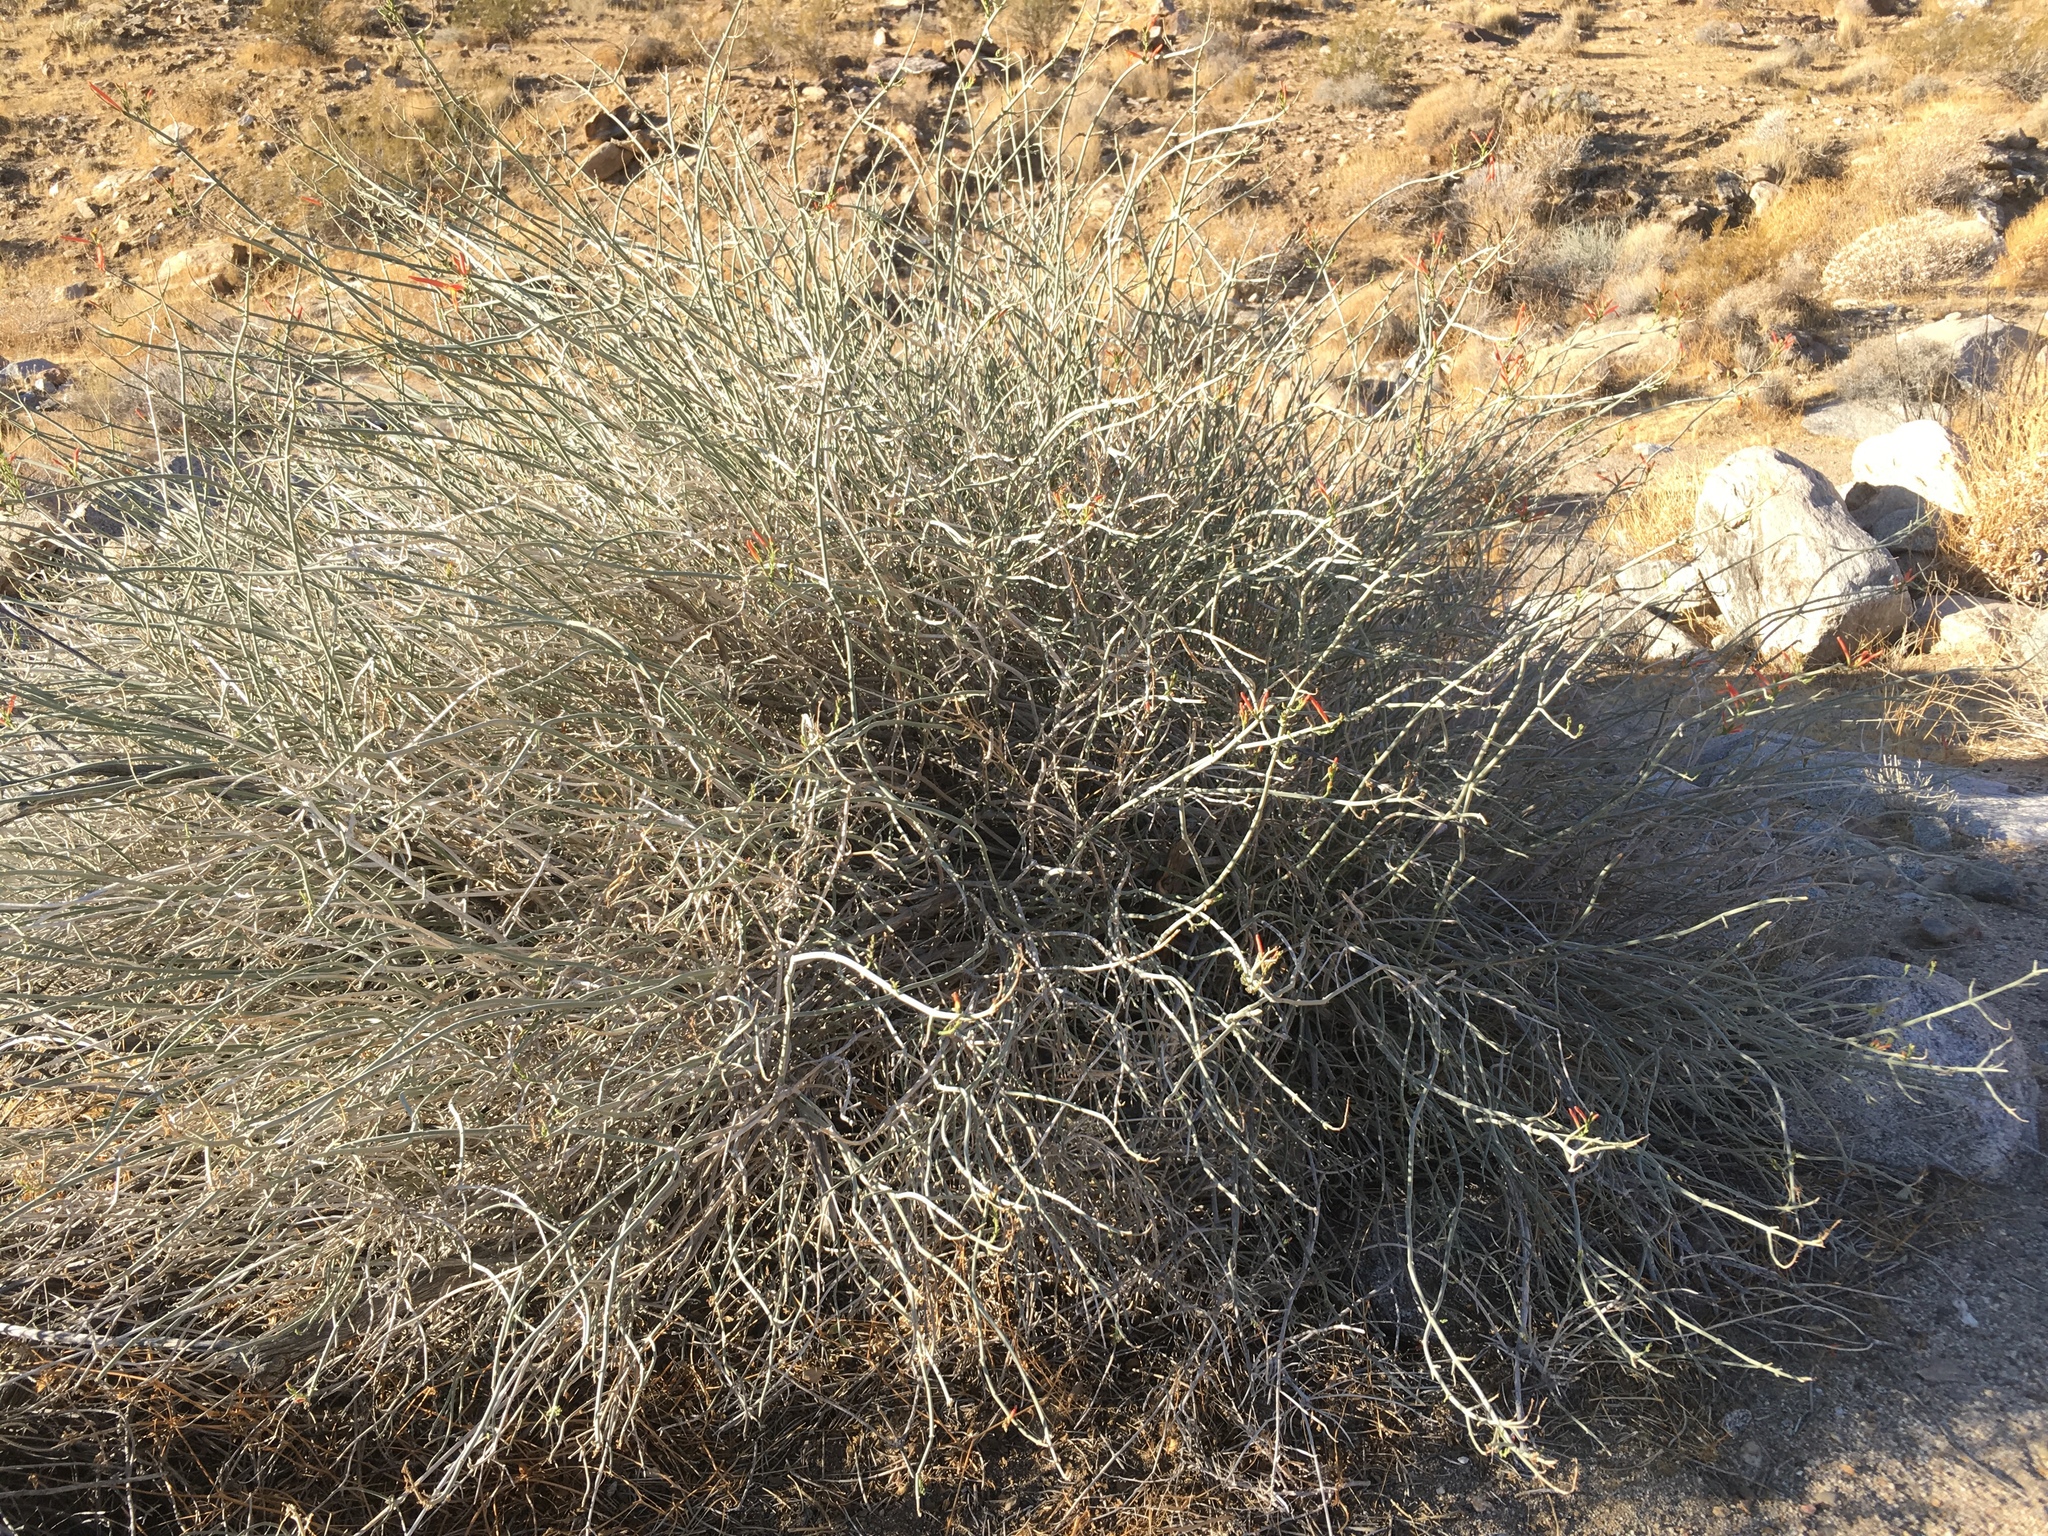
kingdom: Plantae
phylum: Tracheophyta
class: Magnoliopsida
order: Lamiales
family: Acanthaceae
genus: Justicia
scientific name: Justicia californica
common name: Chuparosa-honeysuckle
